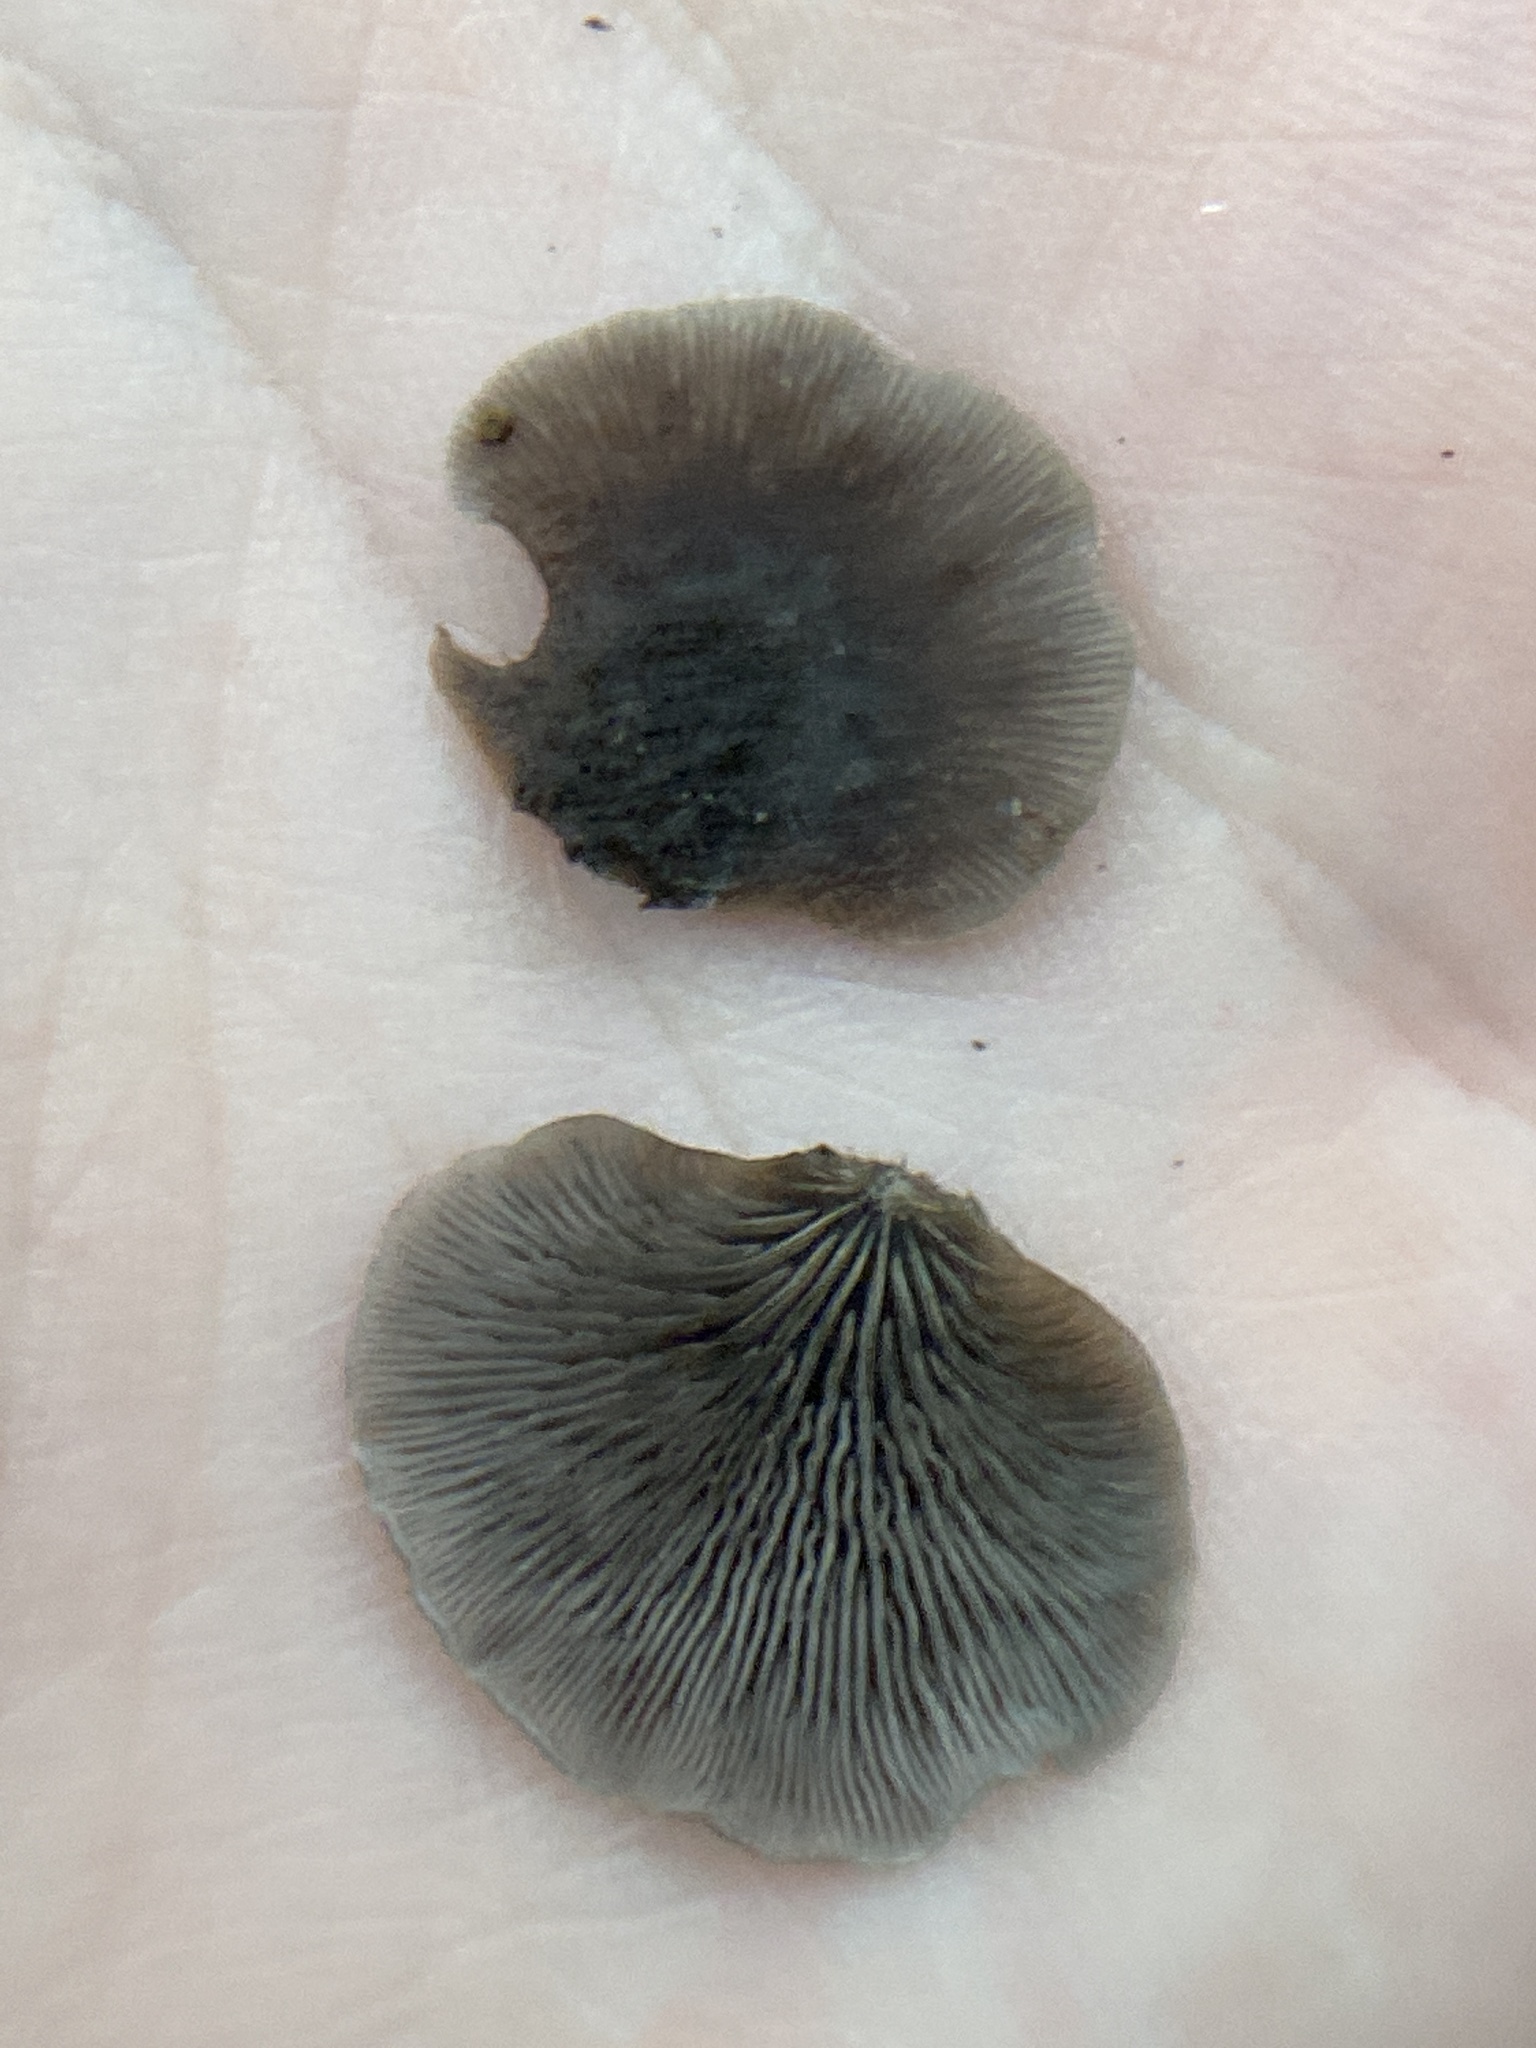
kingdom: Fungi
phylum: Basidiomycota
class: Agaricomycetes
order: Agaricales
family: Pleurotaceae
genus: Resupinatus
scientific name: Resupinatus applicatus
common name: Smoked oysterling
